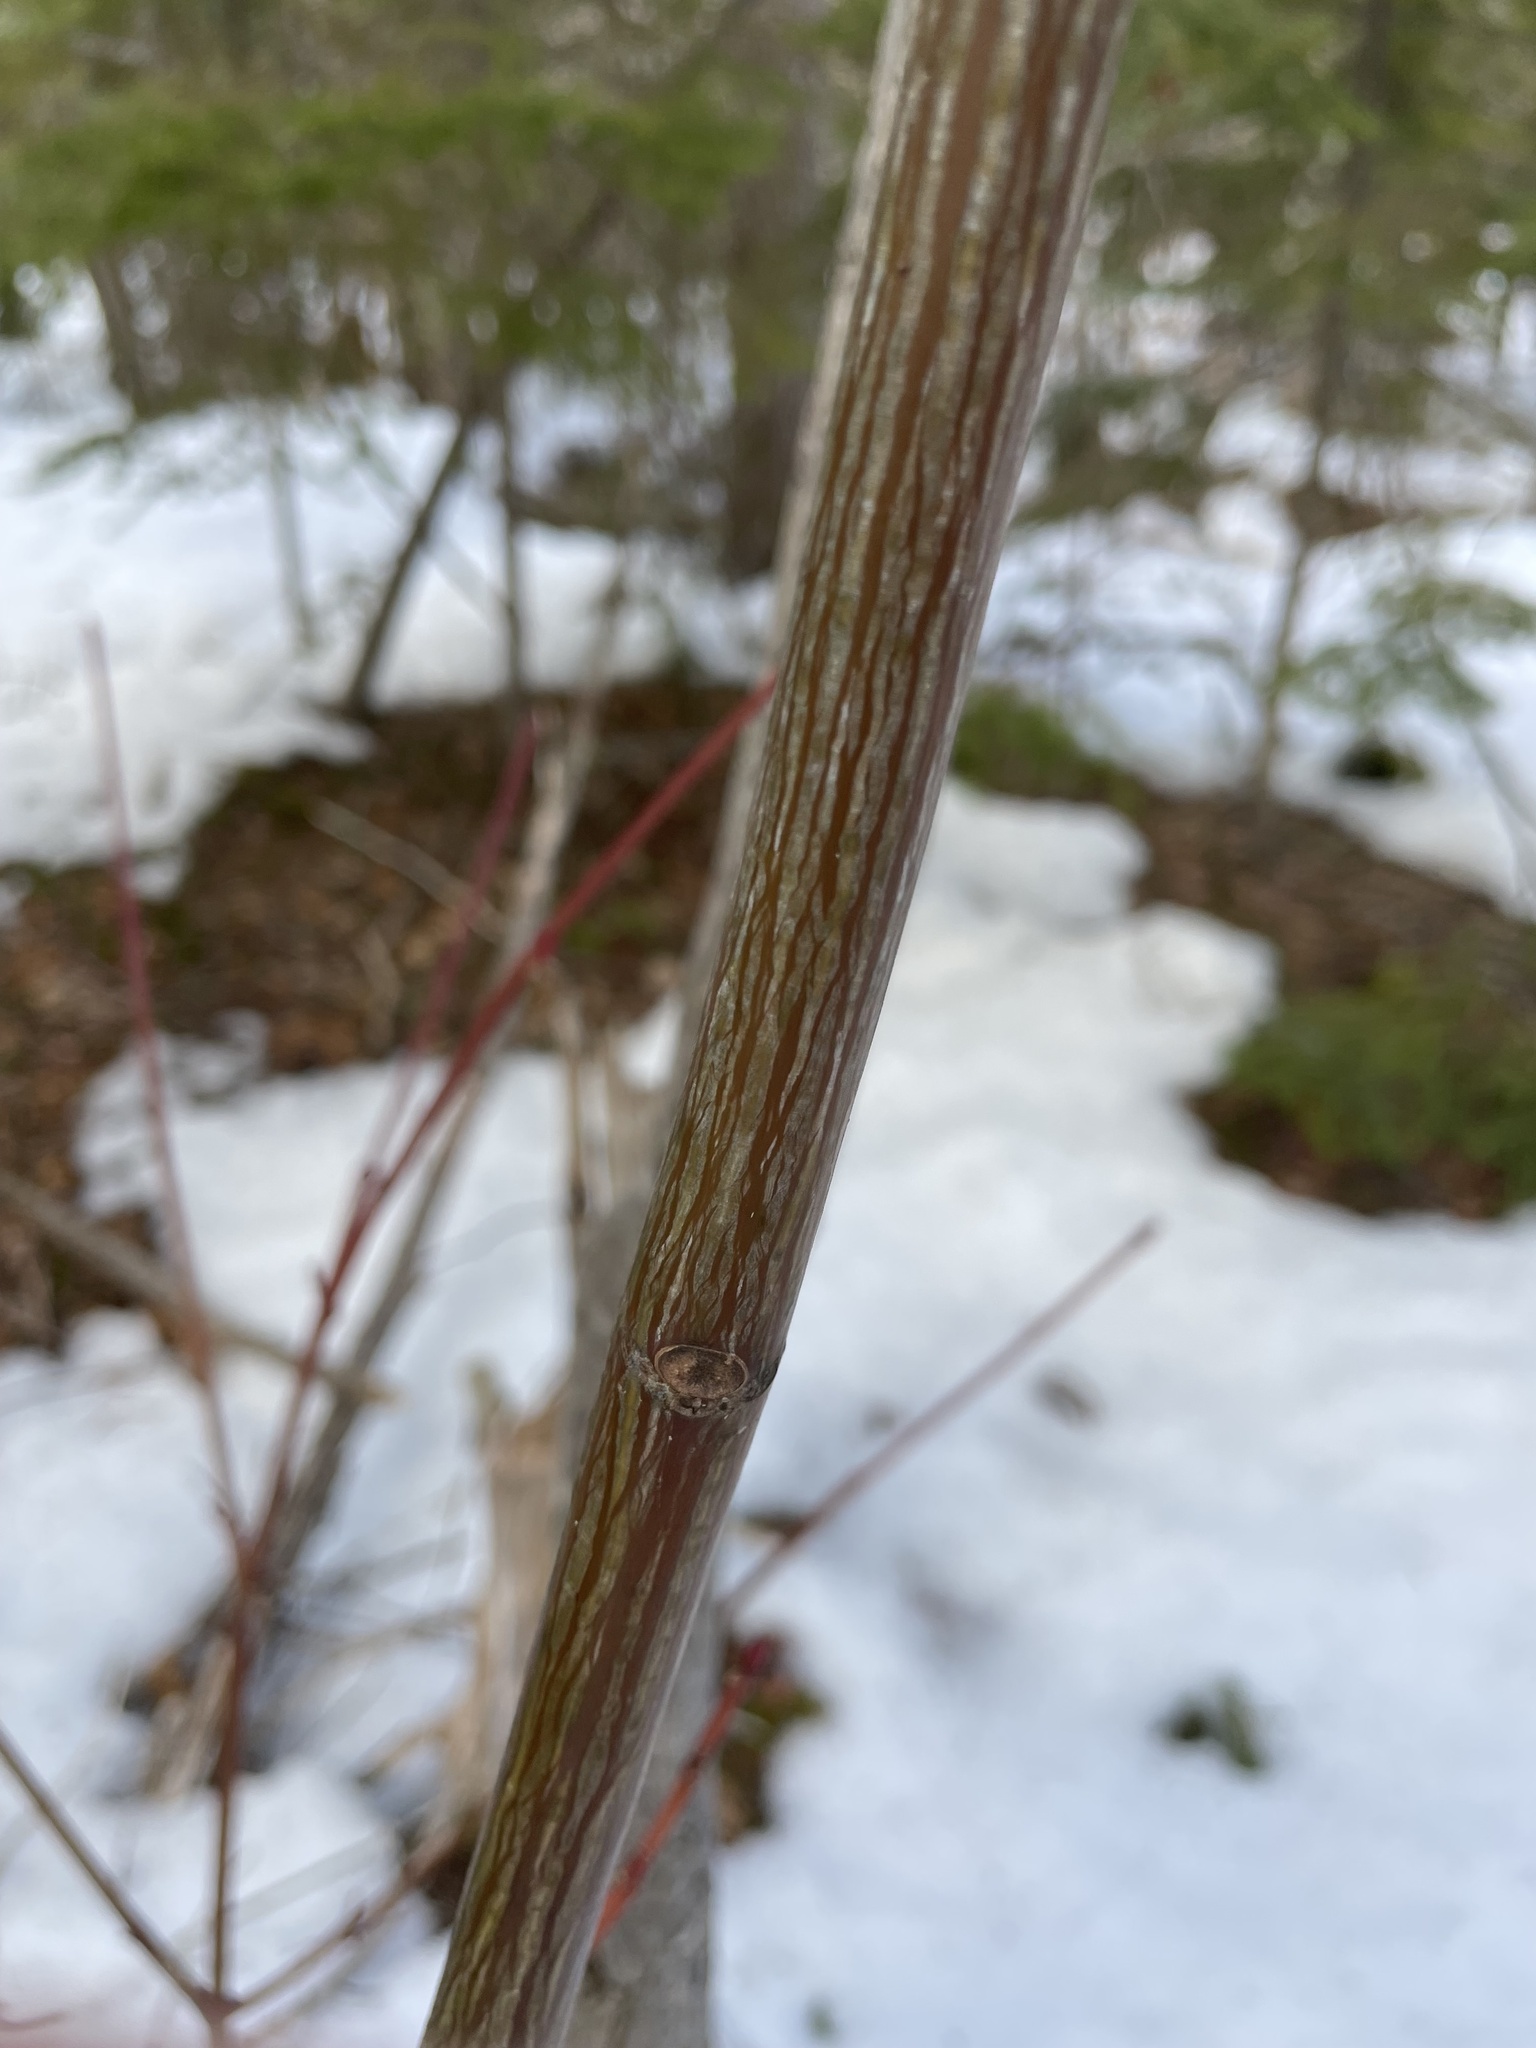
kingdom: Plantae
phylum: Tracheophyta
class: Magnoliopsida
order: Sapindales
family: Sapindaceae
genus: Acer
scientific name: Acer pensylvanicum
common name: Moosewood
